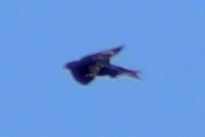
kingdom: Animalia
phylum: Chordata
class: Aves
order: Passeriformes
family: Hirundinidae
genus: Progne
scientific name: Progne subis
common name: Purple martin
